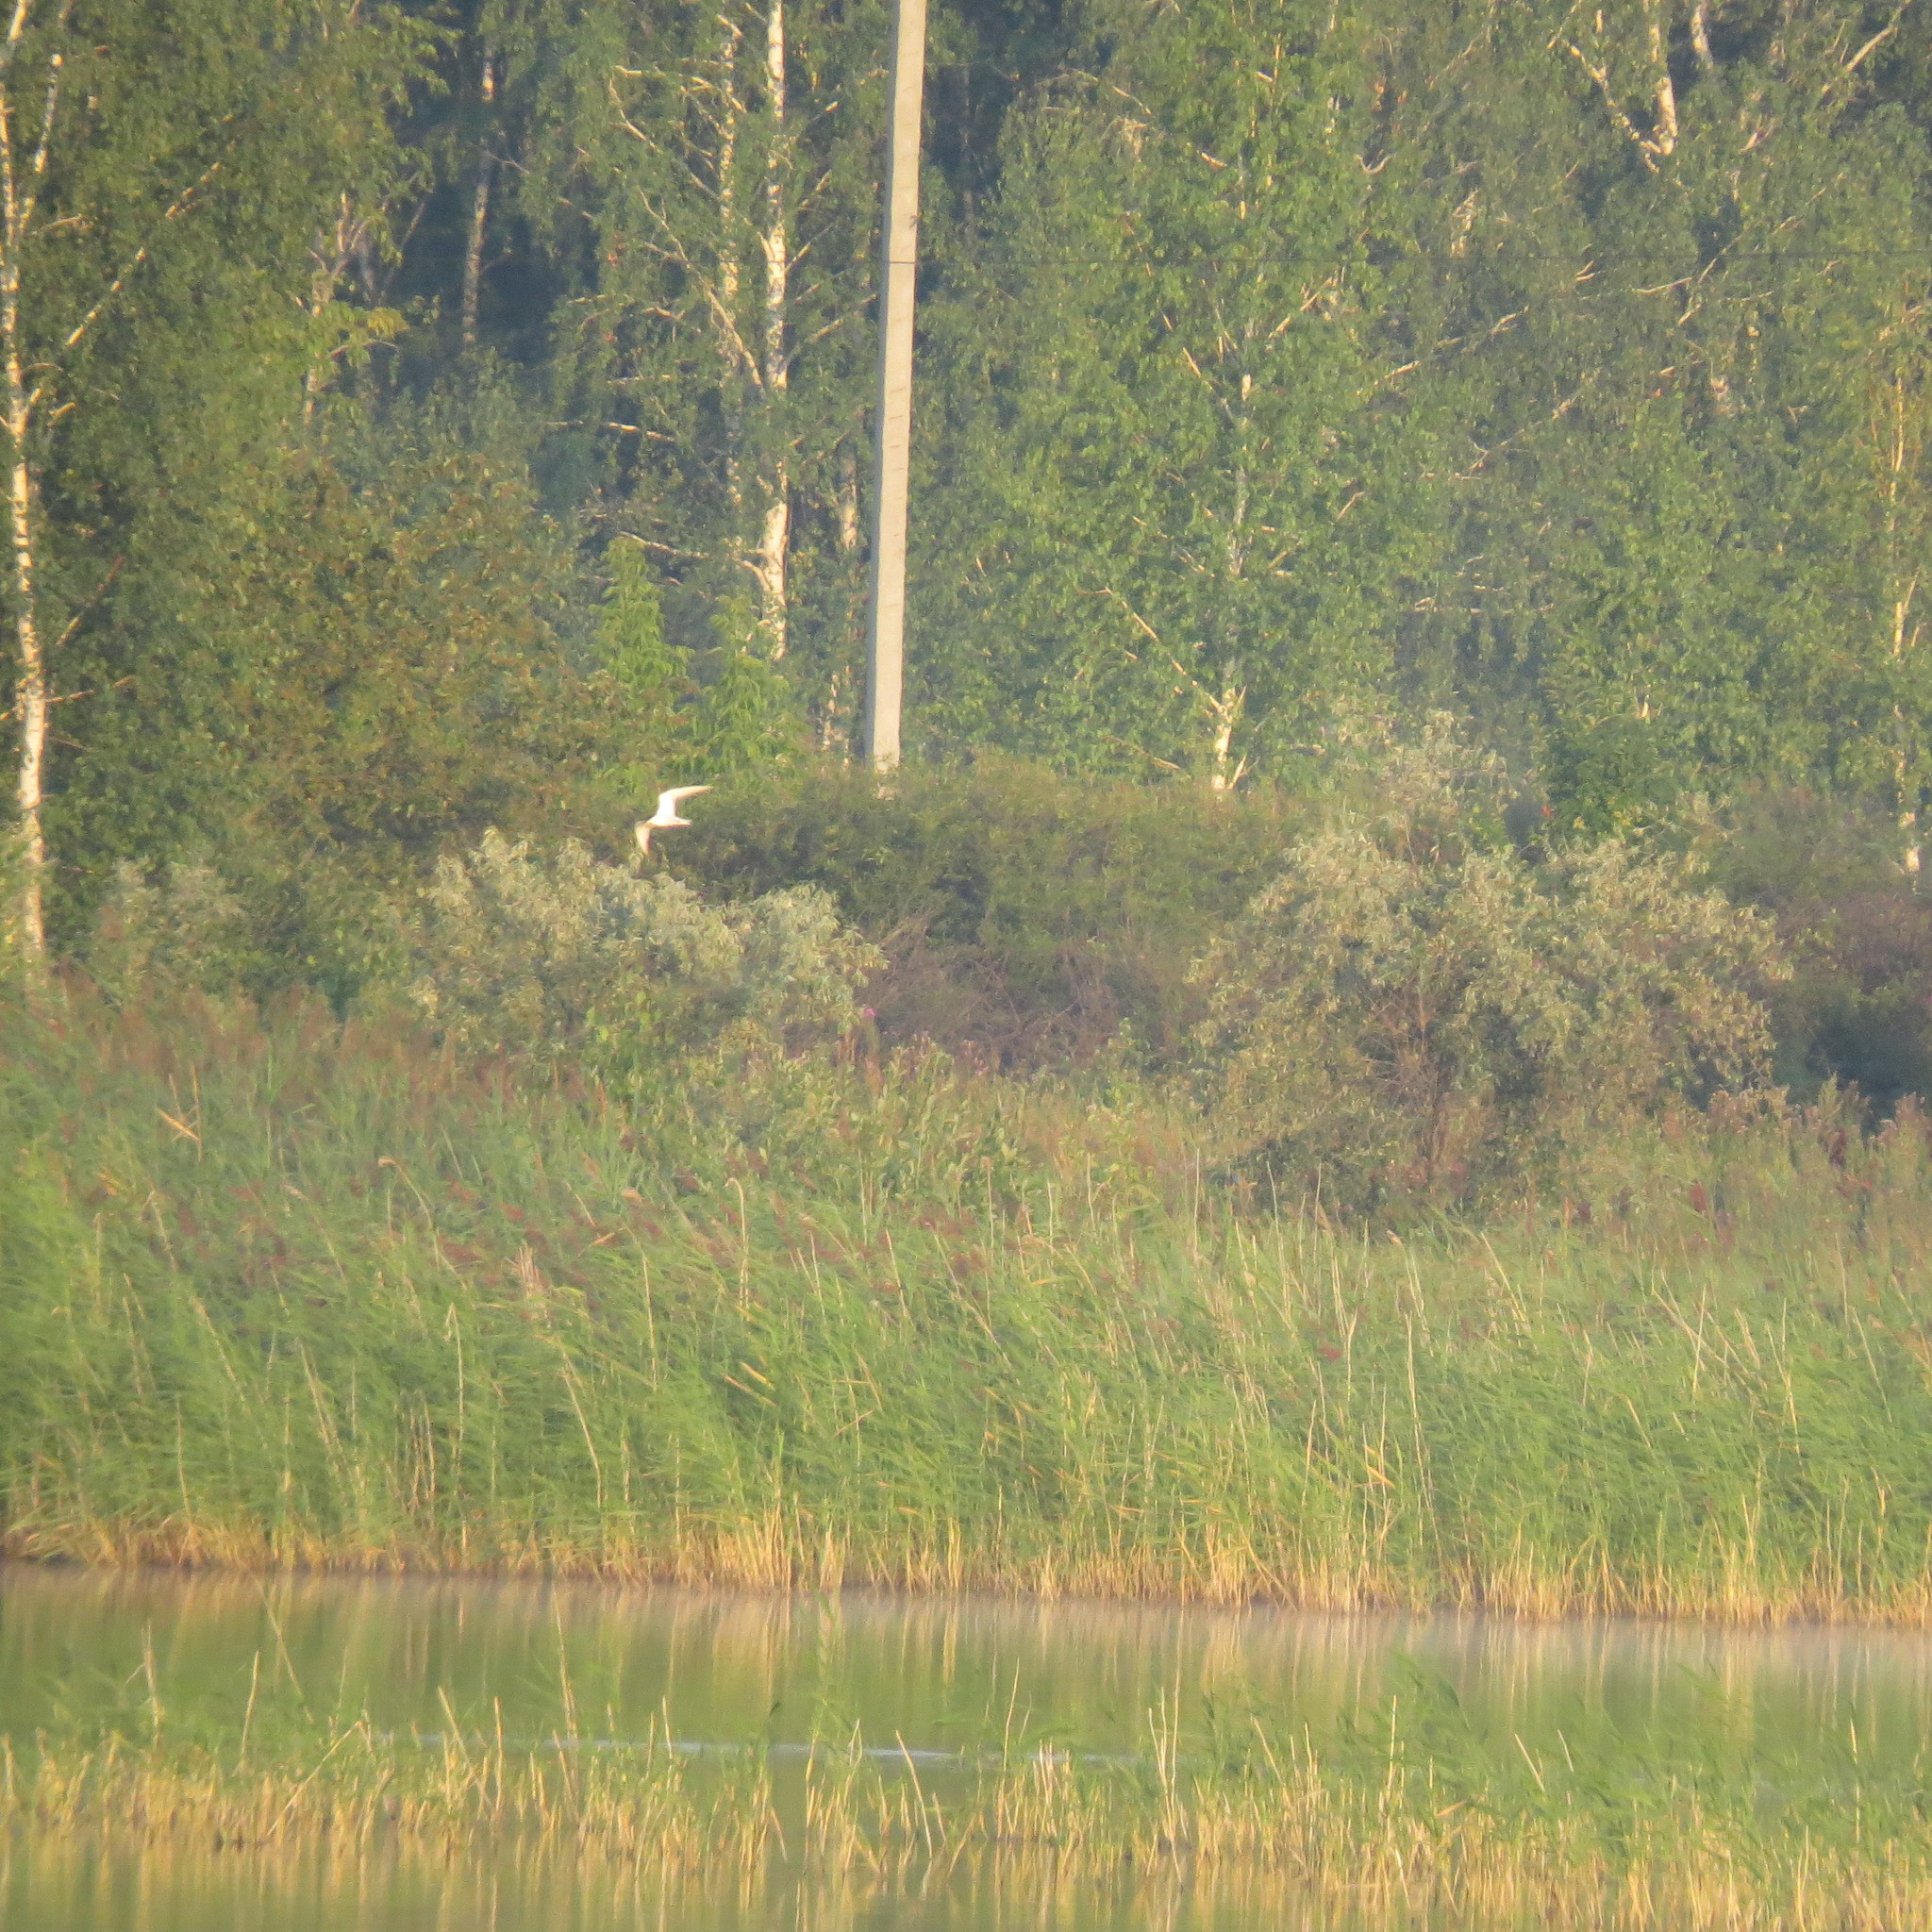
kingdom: Animalia
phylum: Chordata
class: Aves
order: Charadriiformes
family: Laridae
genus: Sterna
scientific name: Sterna hirundo
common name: Common tern
